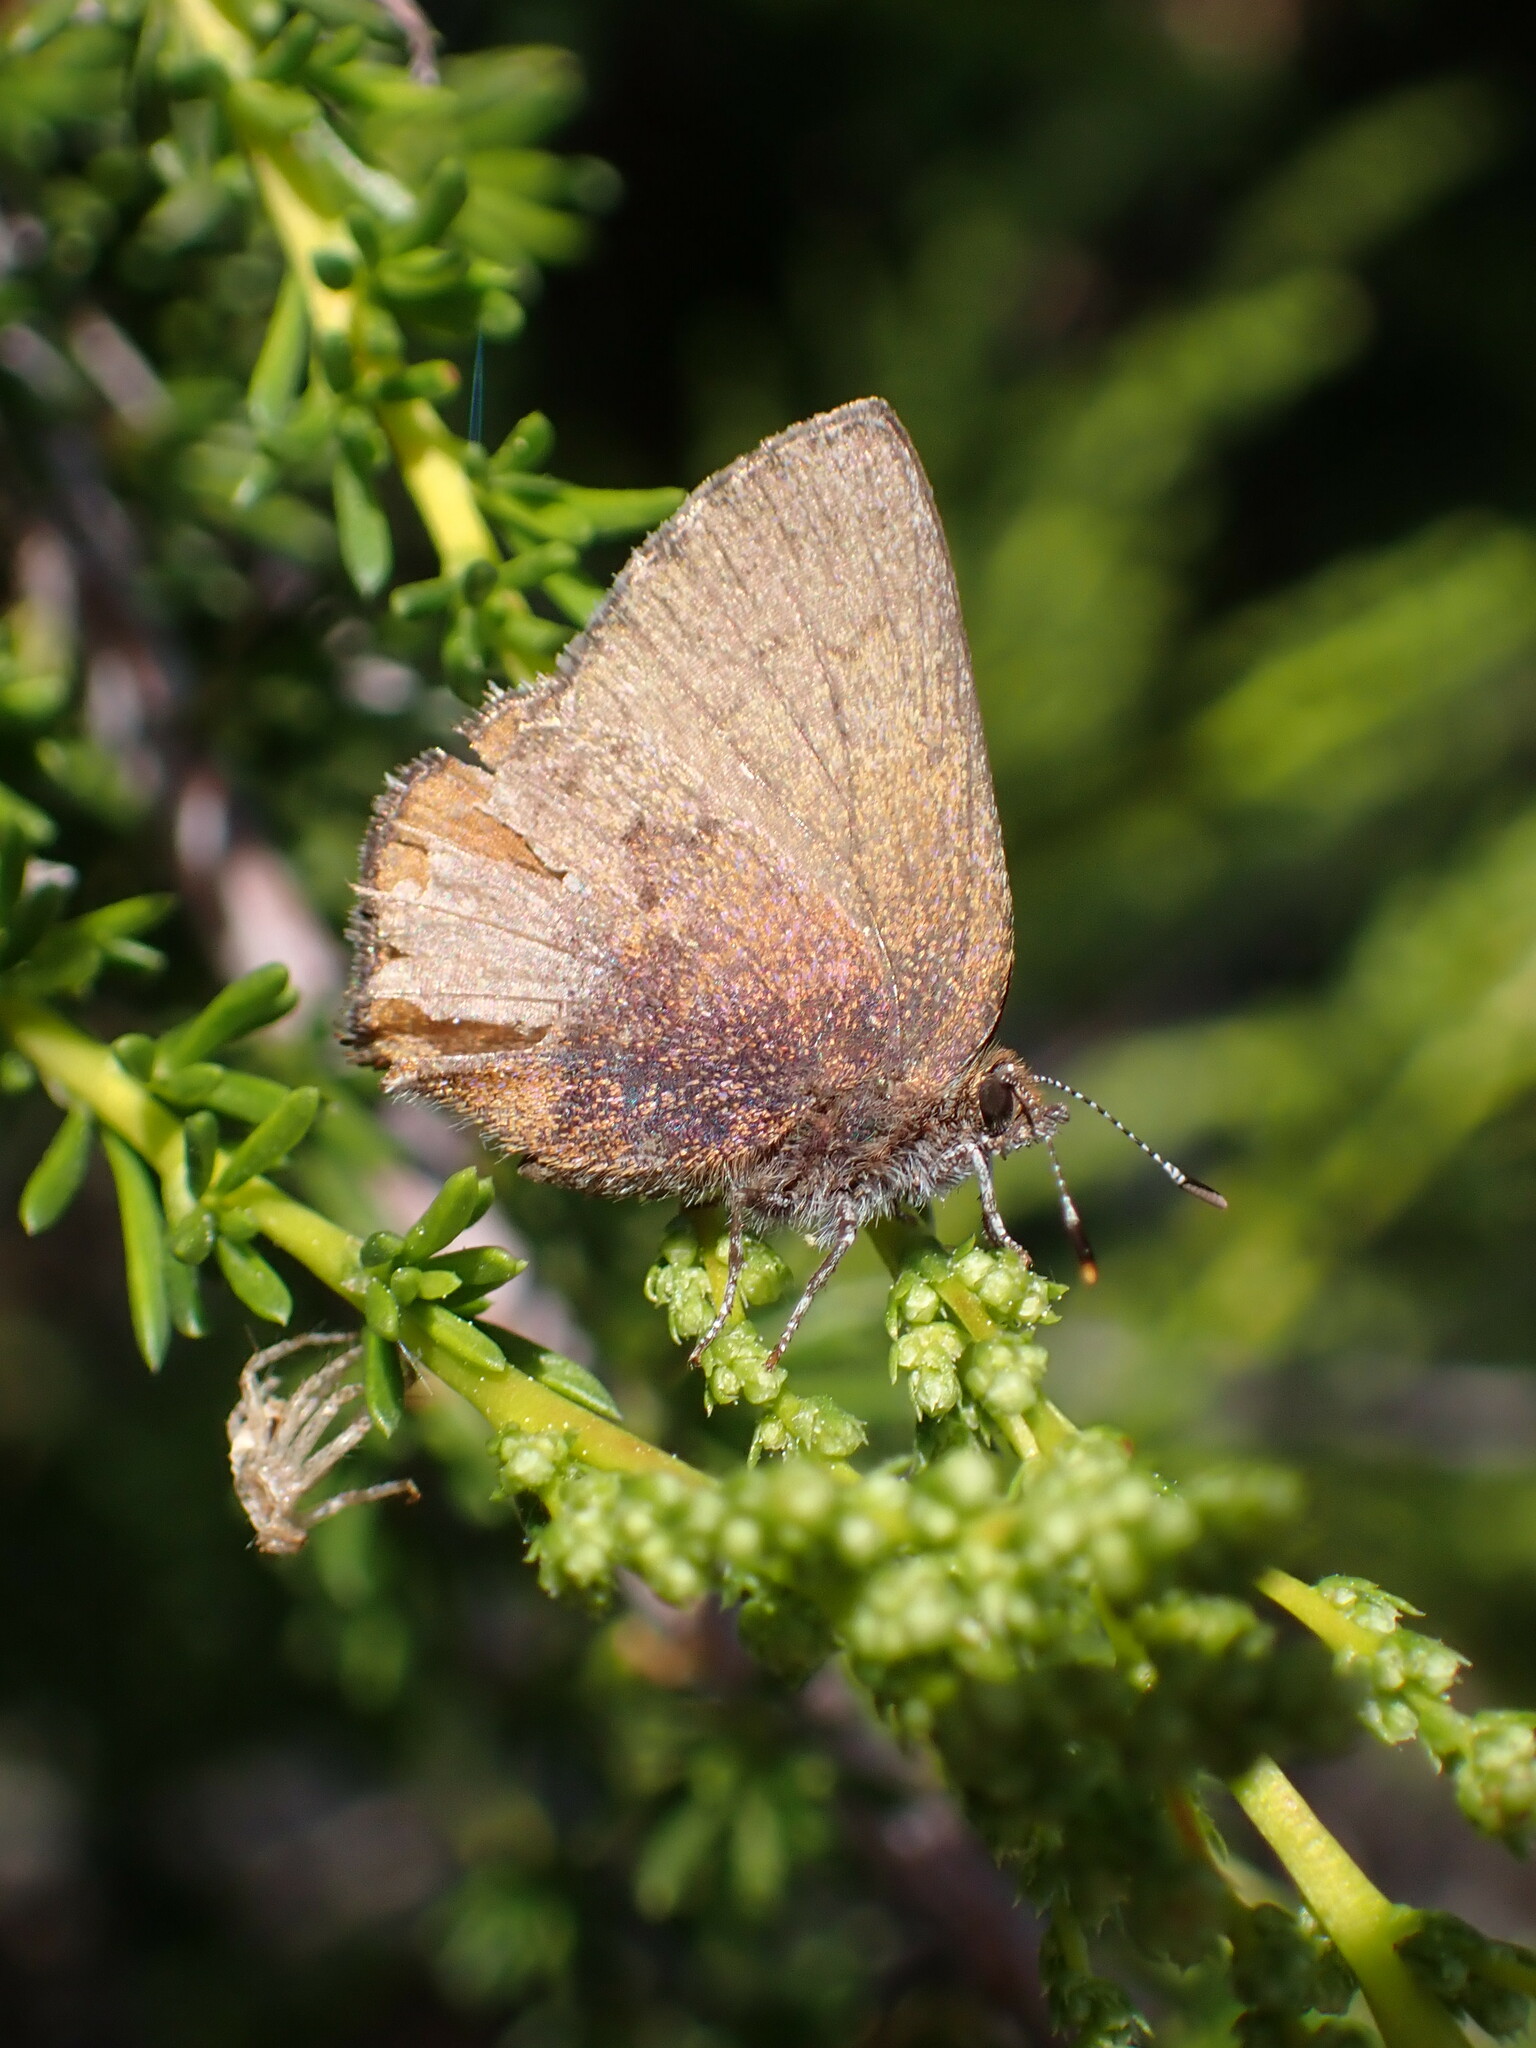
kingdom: Animalia
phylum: Arthropoda
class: Insecta
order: Lepidoptera
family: Lycaenidae
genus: Incisalia
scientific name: Incisalia irioides
